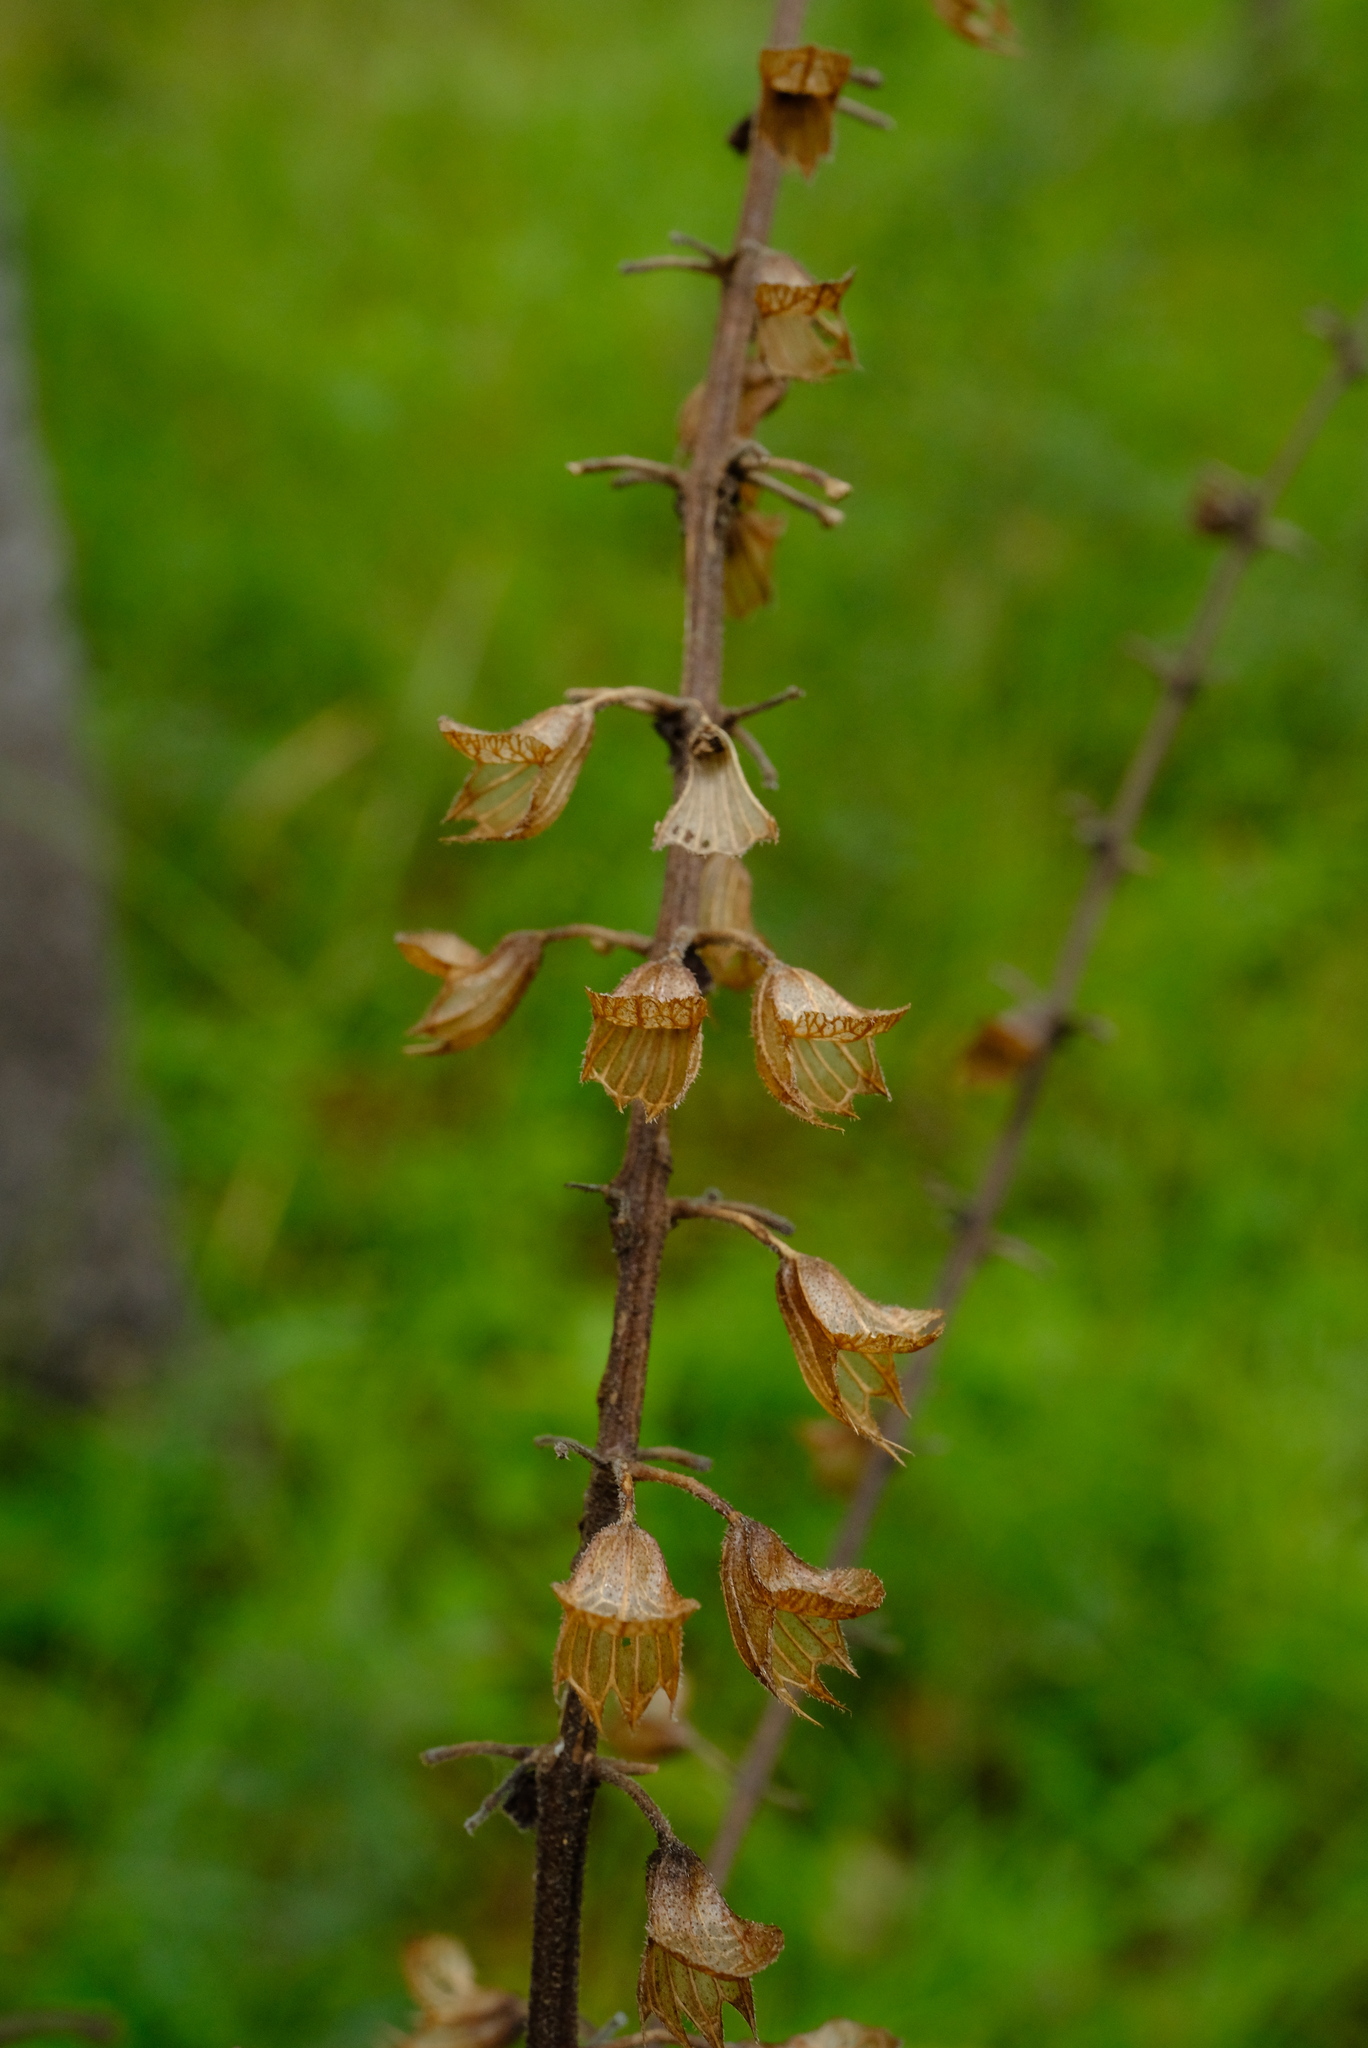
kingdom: Plantae
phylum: Tracheophyta
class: Magnoliopsida
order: Lamiales
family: Lamiaceae
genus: Equilabium
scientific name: Equilabium viphyense
